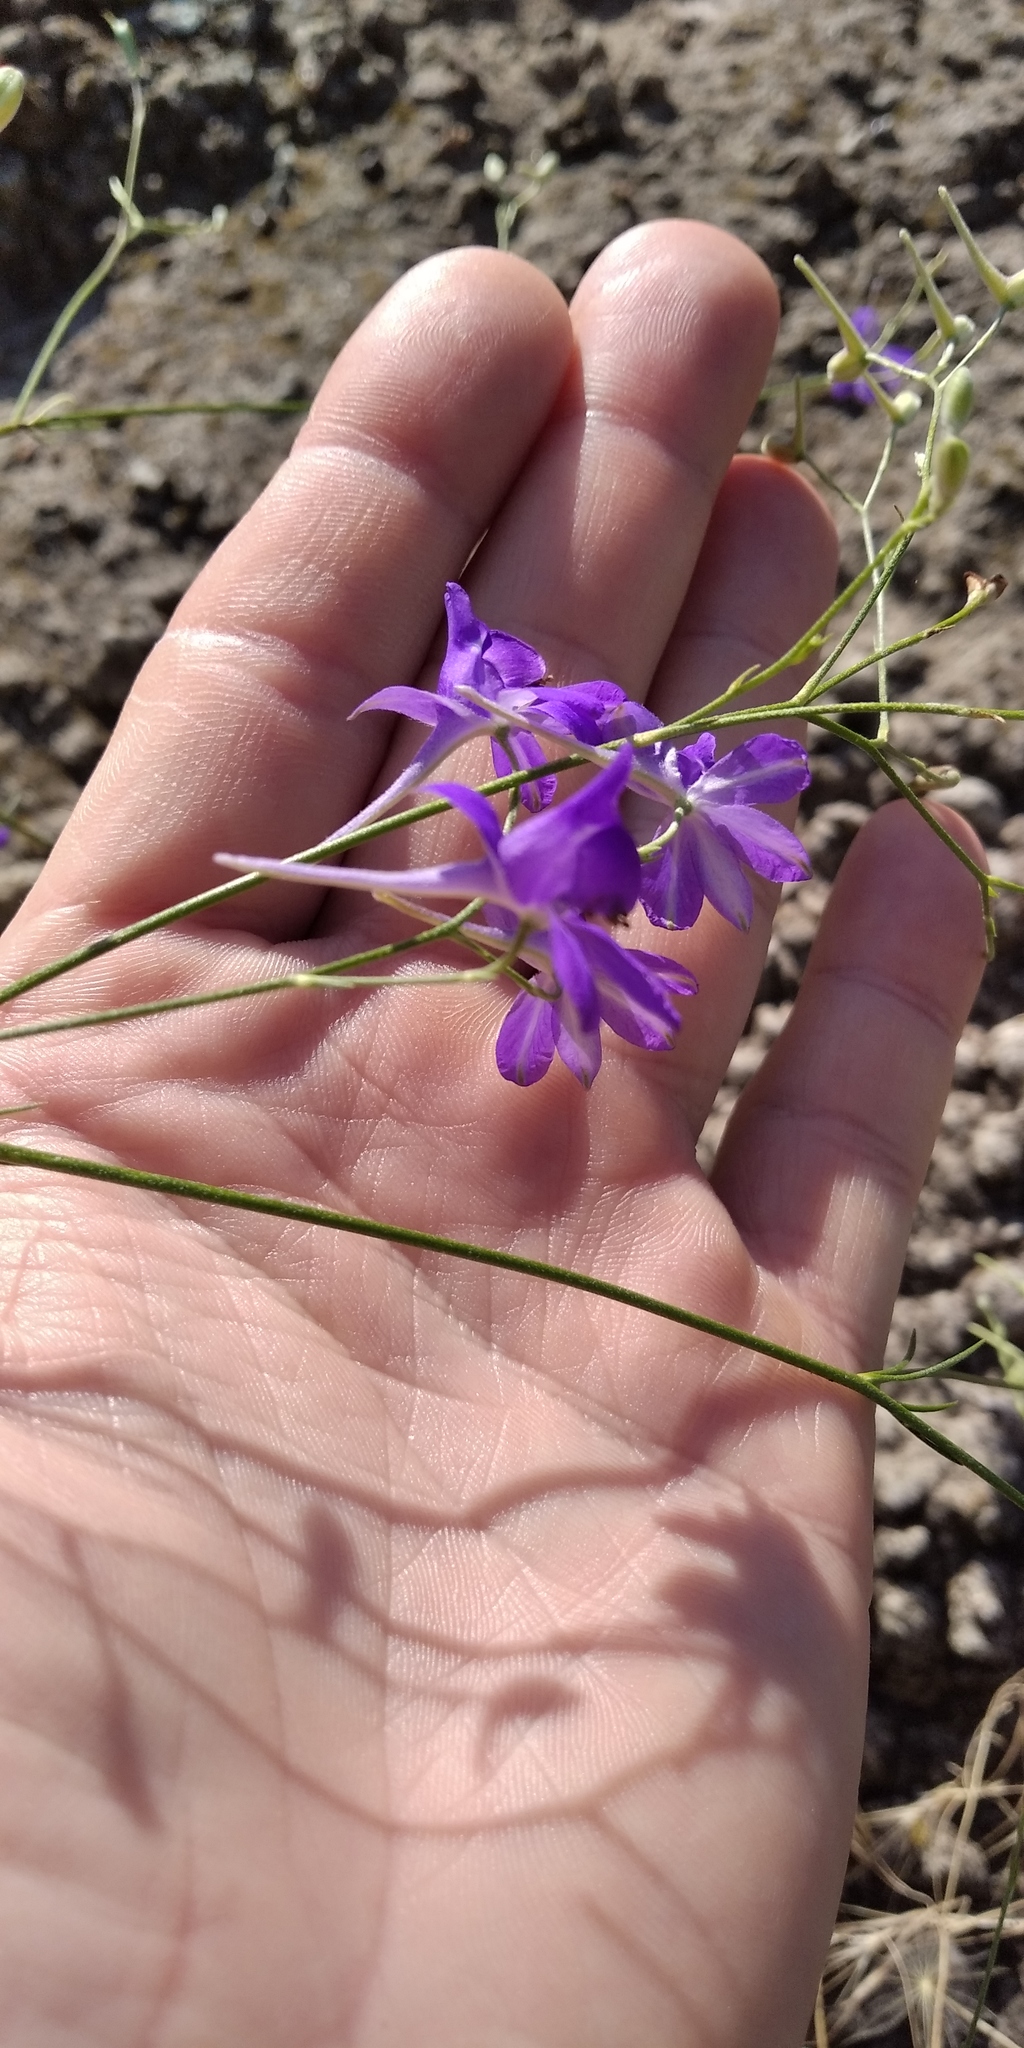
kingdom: Plantae
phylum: Tracheophyta
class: Magnoliopsida
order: Ranunculales
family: Ranunculaceae
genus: Delphinium
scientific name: Delphinium consolida
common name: Branching larkspur
